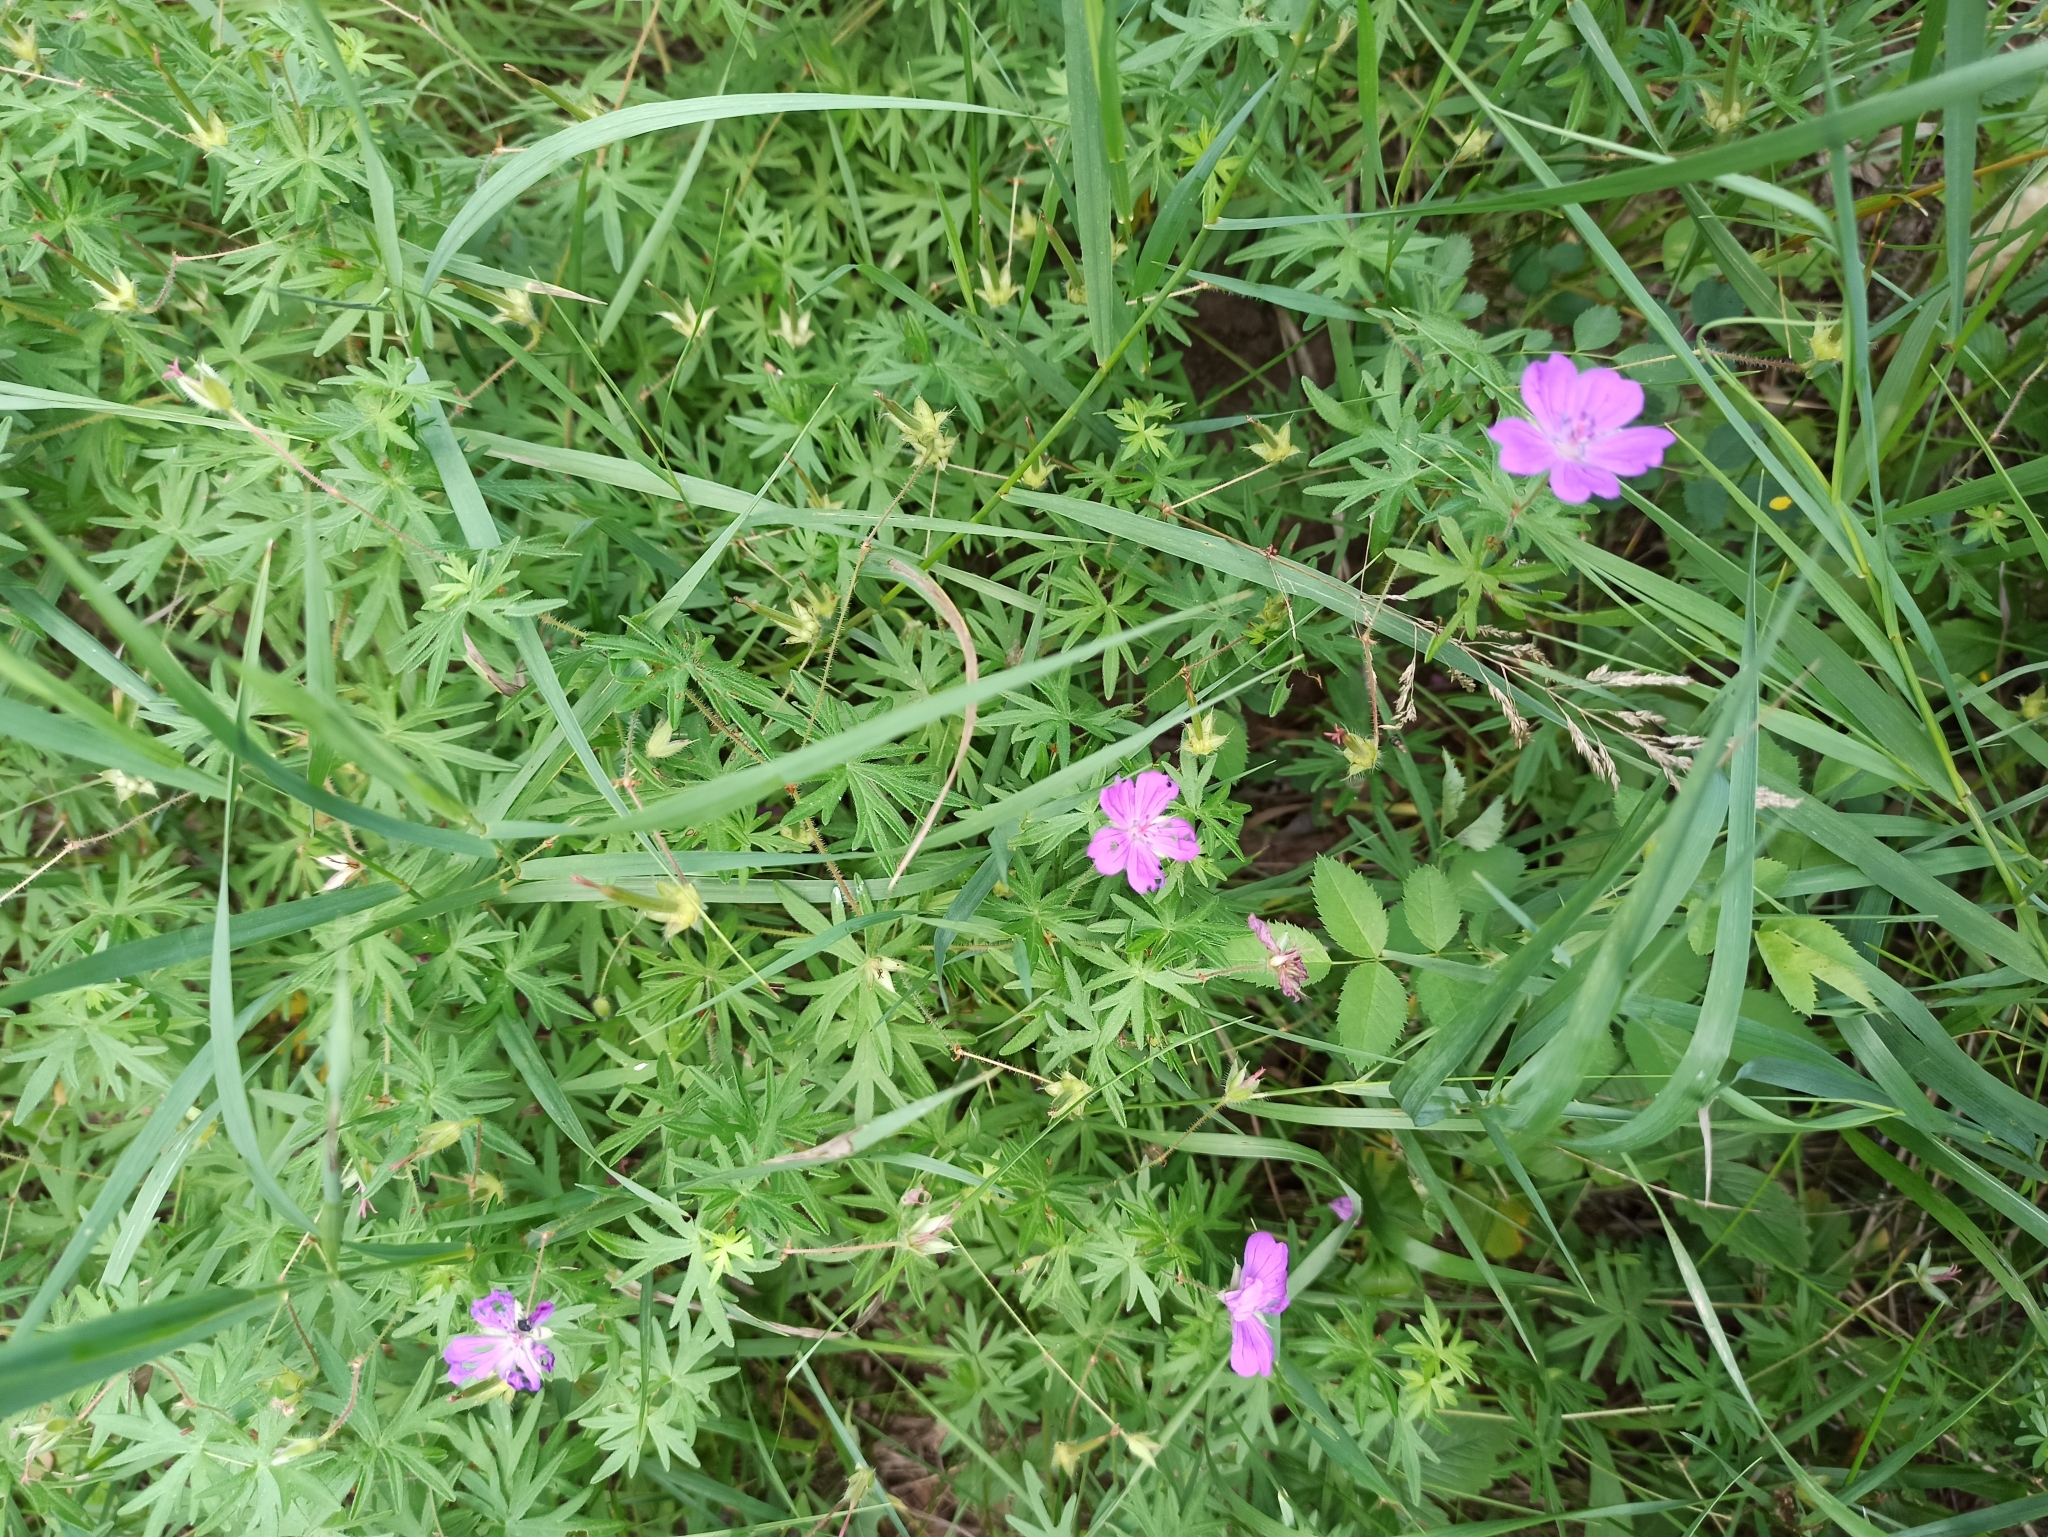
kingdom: Plantae
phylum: Tracheophyta
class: Magnoliopsida
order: Geraniales
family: Geraniaceae
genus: Geranium
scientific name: Geranium sanguineum
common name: Bloody crane's-bill
